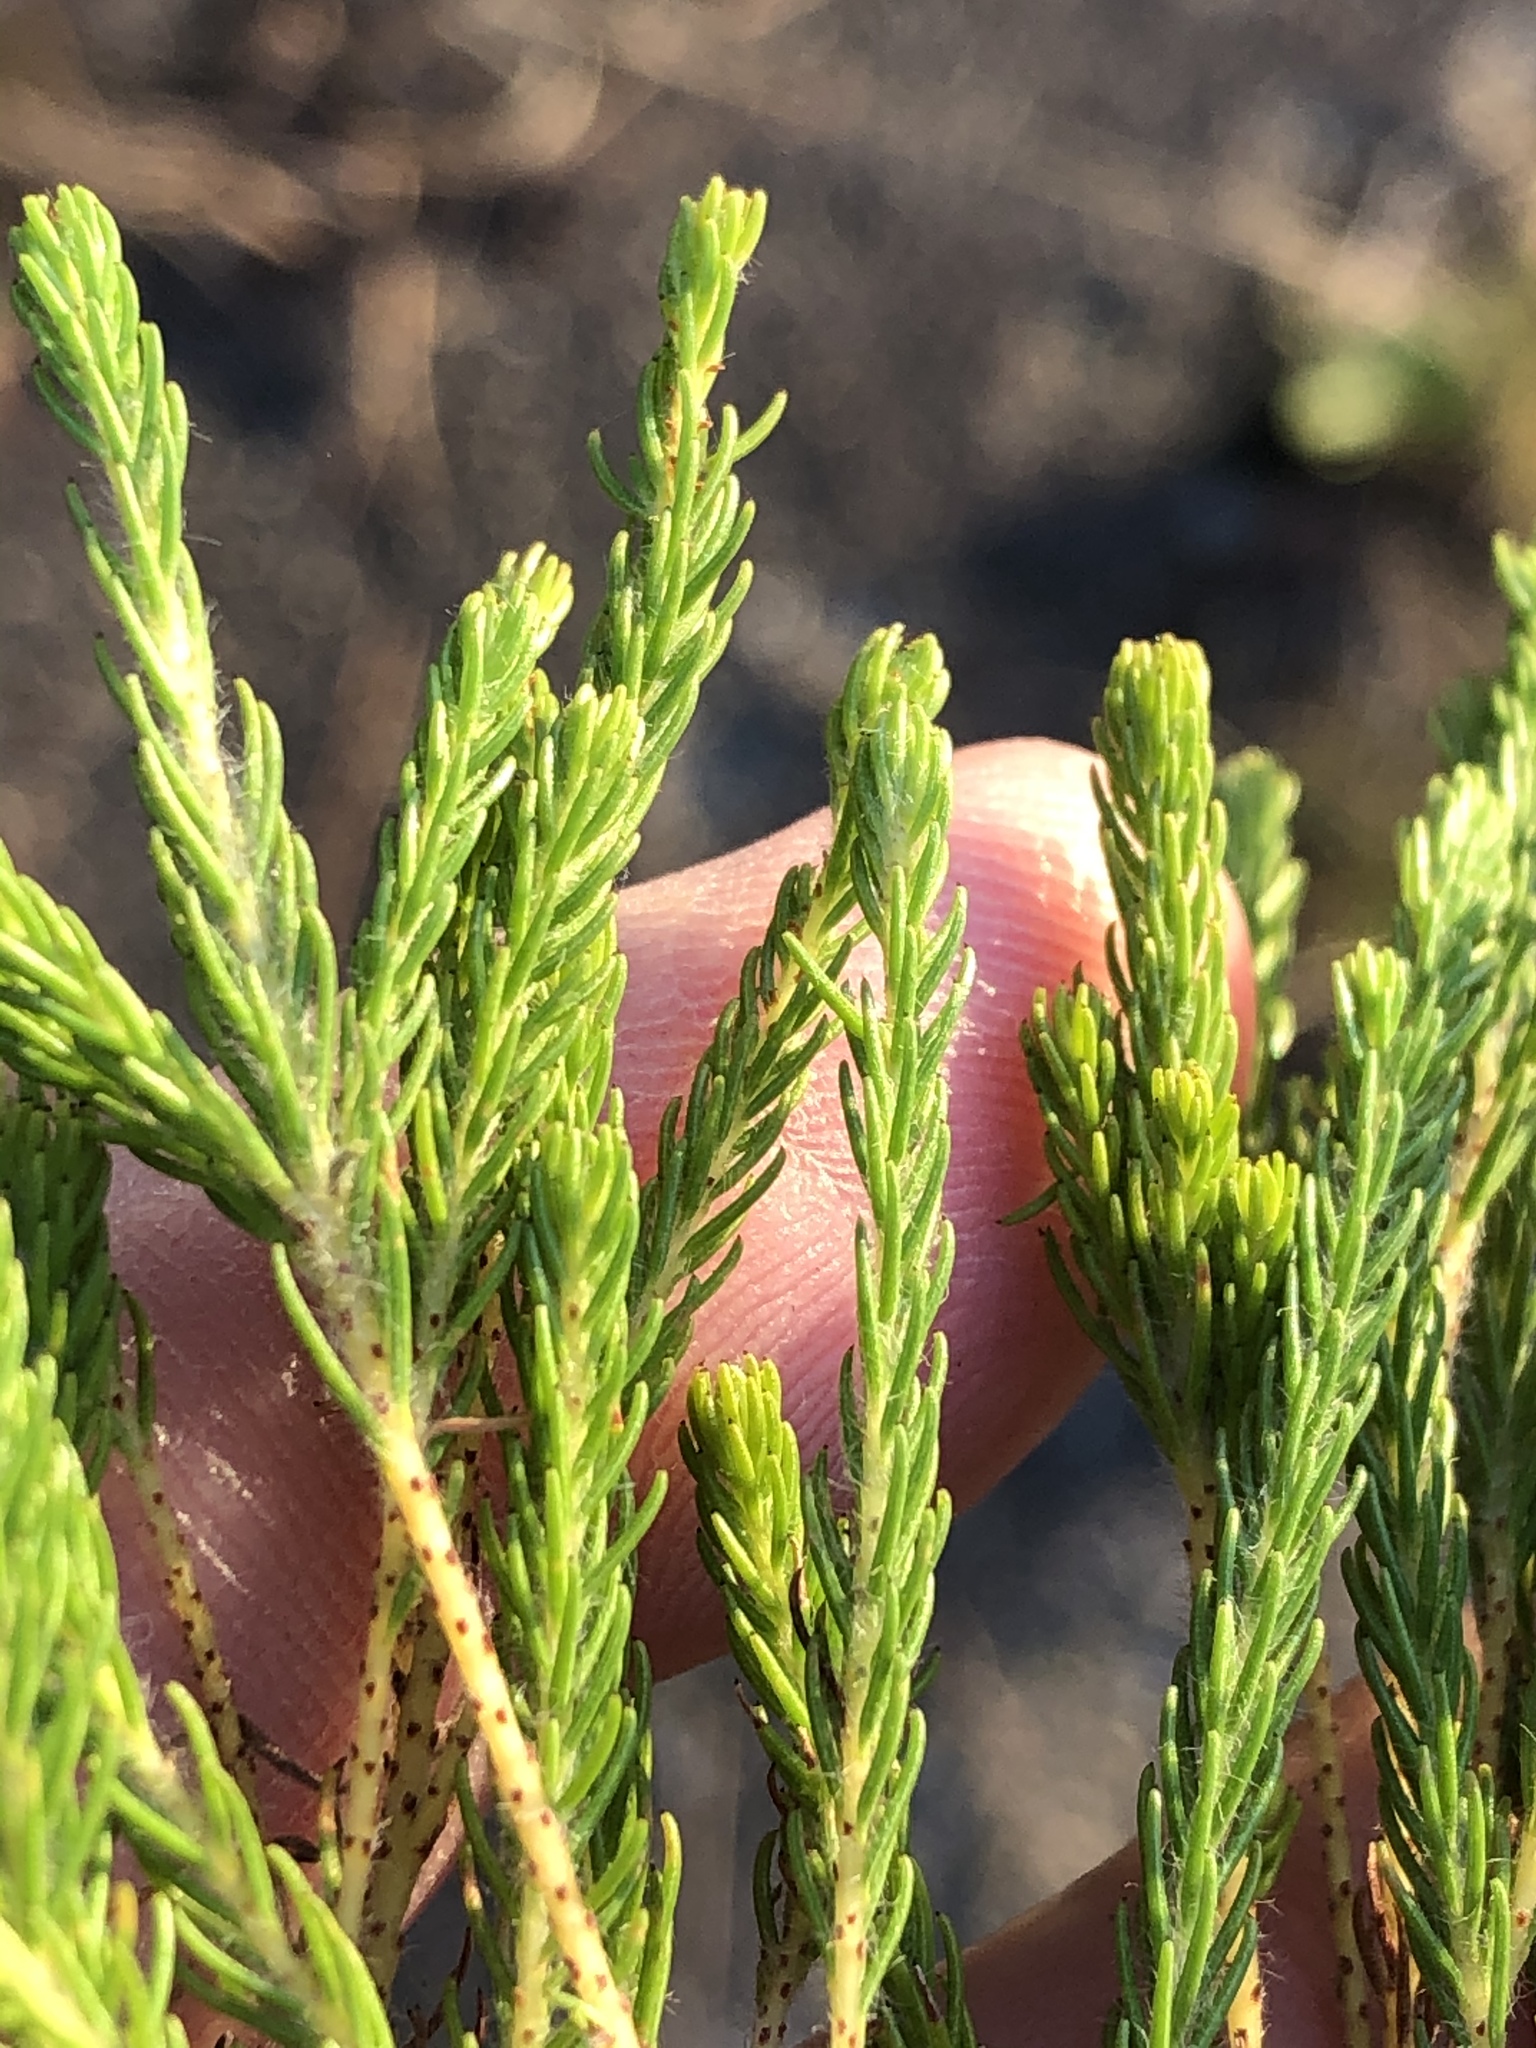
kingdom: Plantae
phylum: Tracheophyta
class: Magnoliopsida
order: Bruniales
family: Bruniaceae
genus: Berzelia
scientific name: Berzelia intermedia
